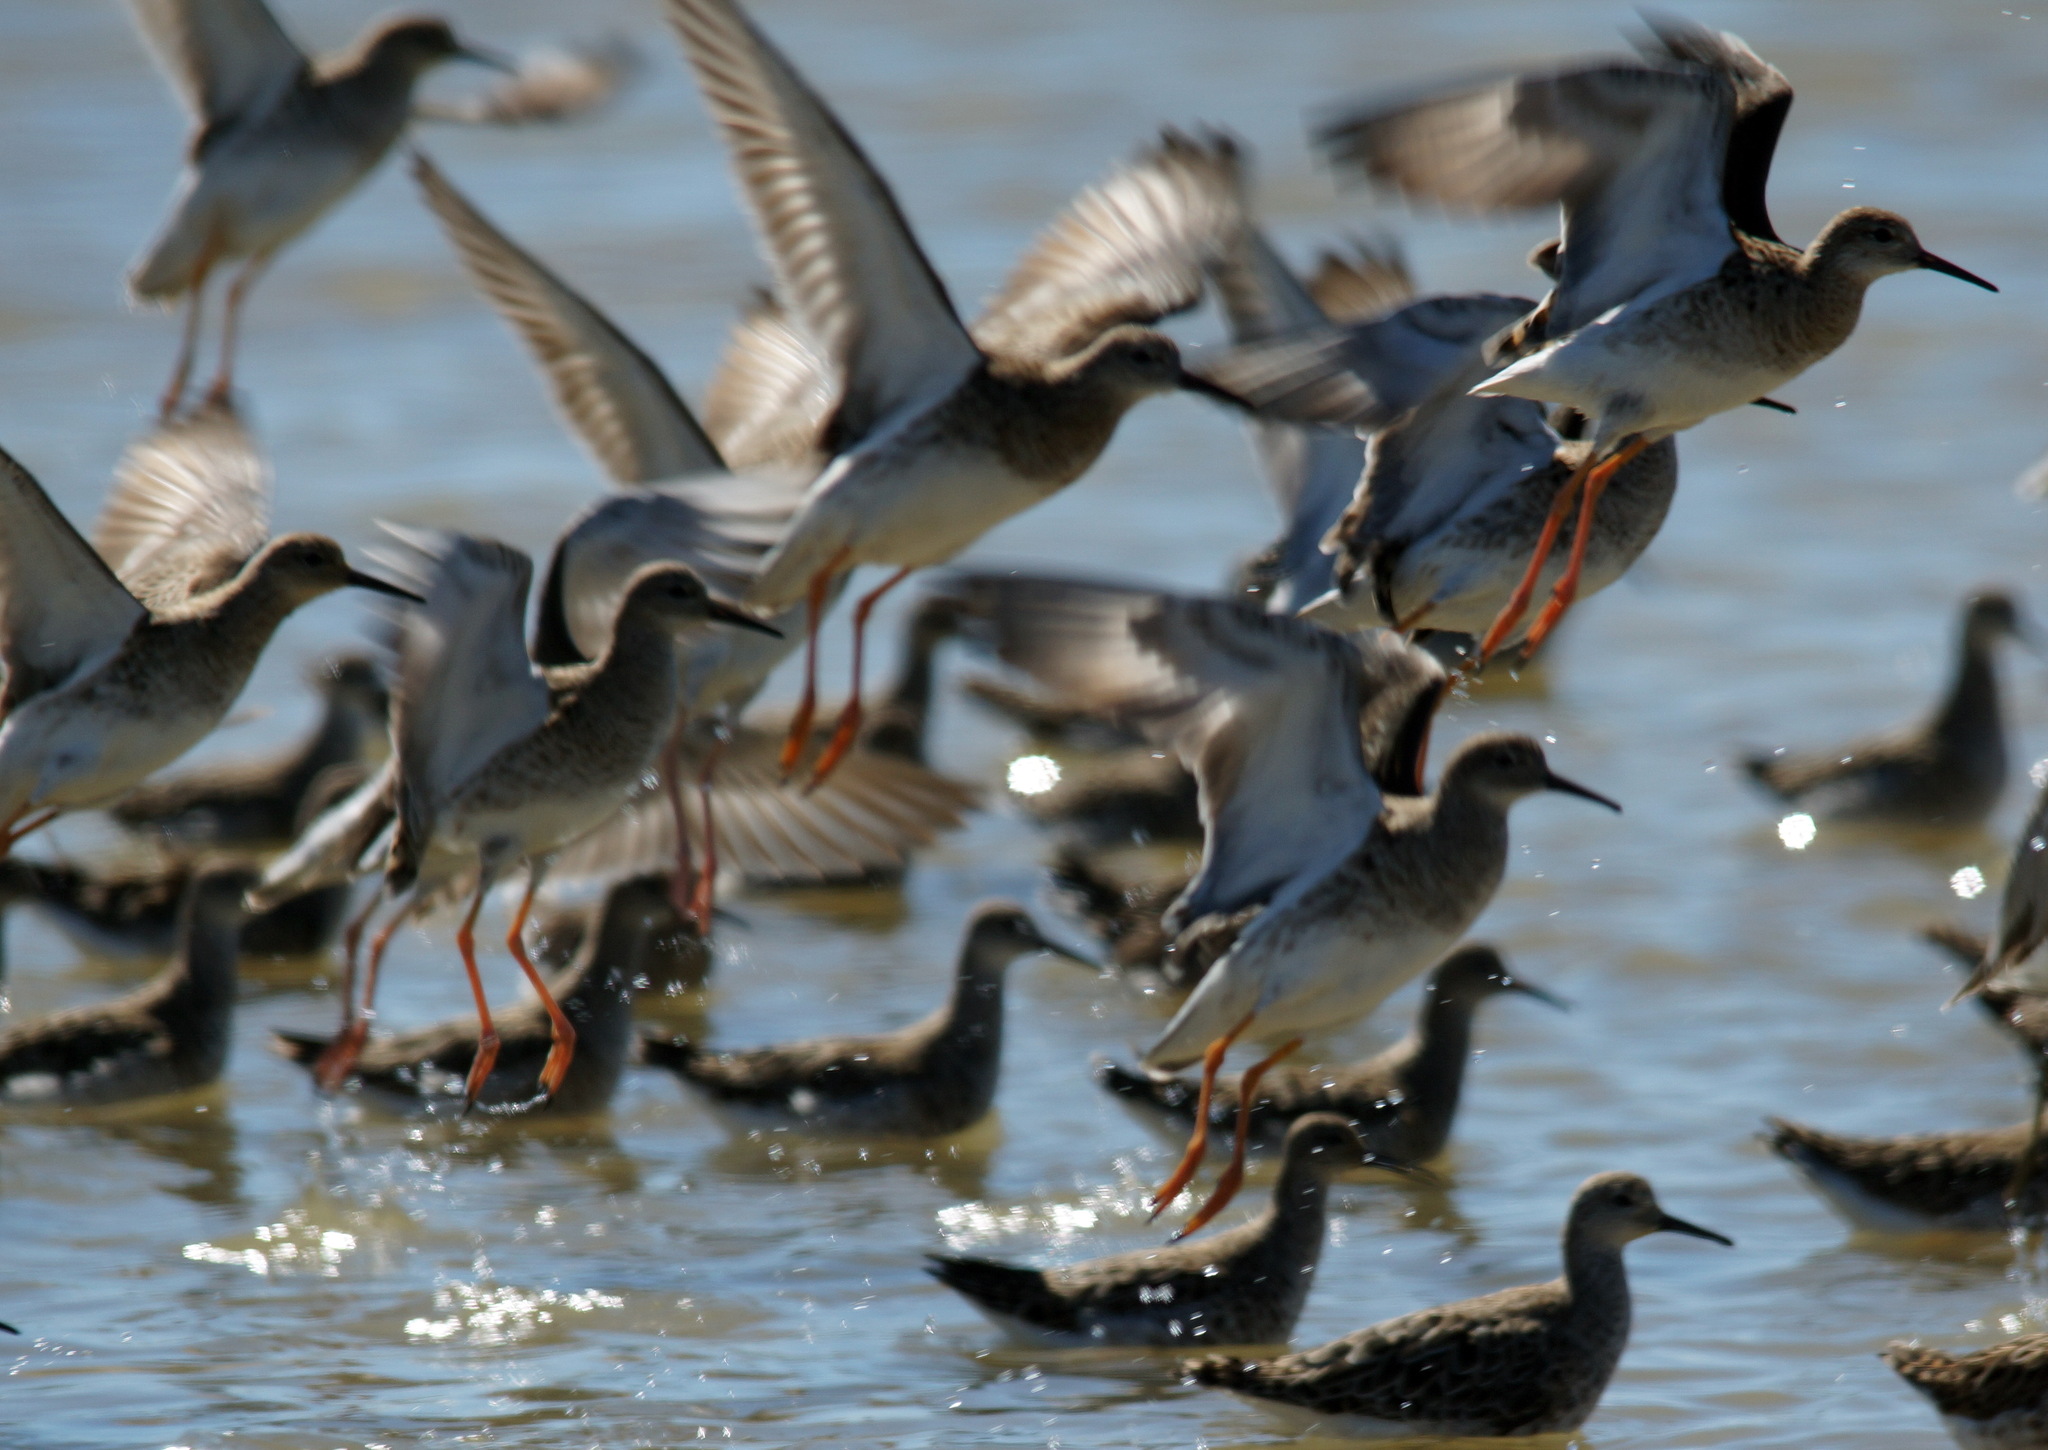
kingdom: Animalia
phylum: Chordata
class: Aves
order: Charadriiformes
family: Scolopacidae
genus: Calidris
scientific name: Calidris pugnax
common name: Ruff
